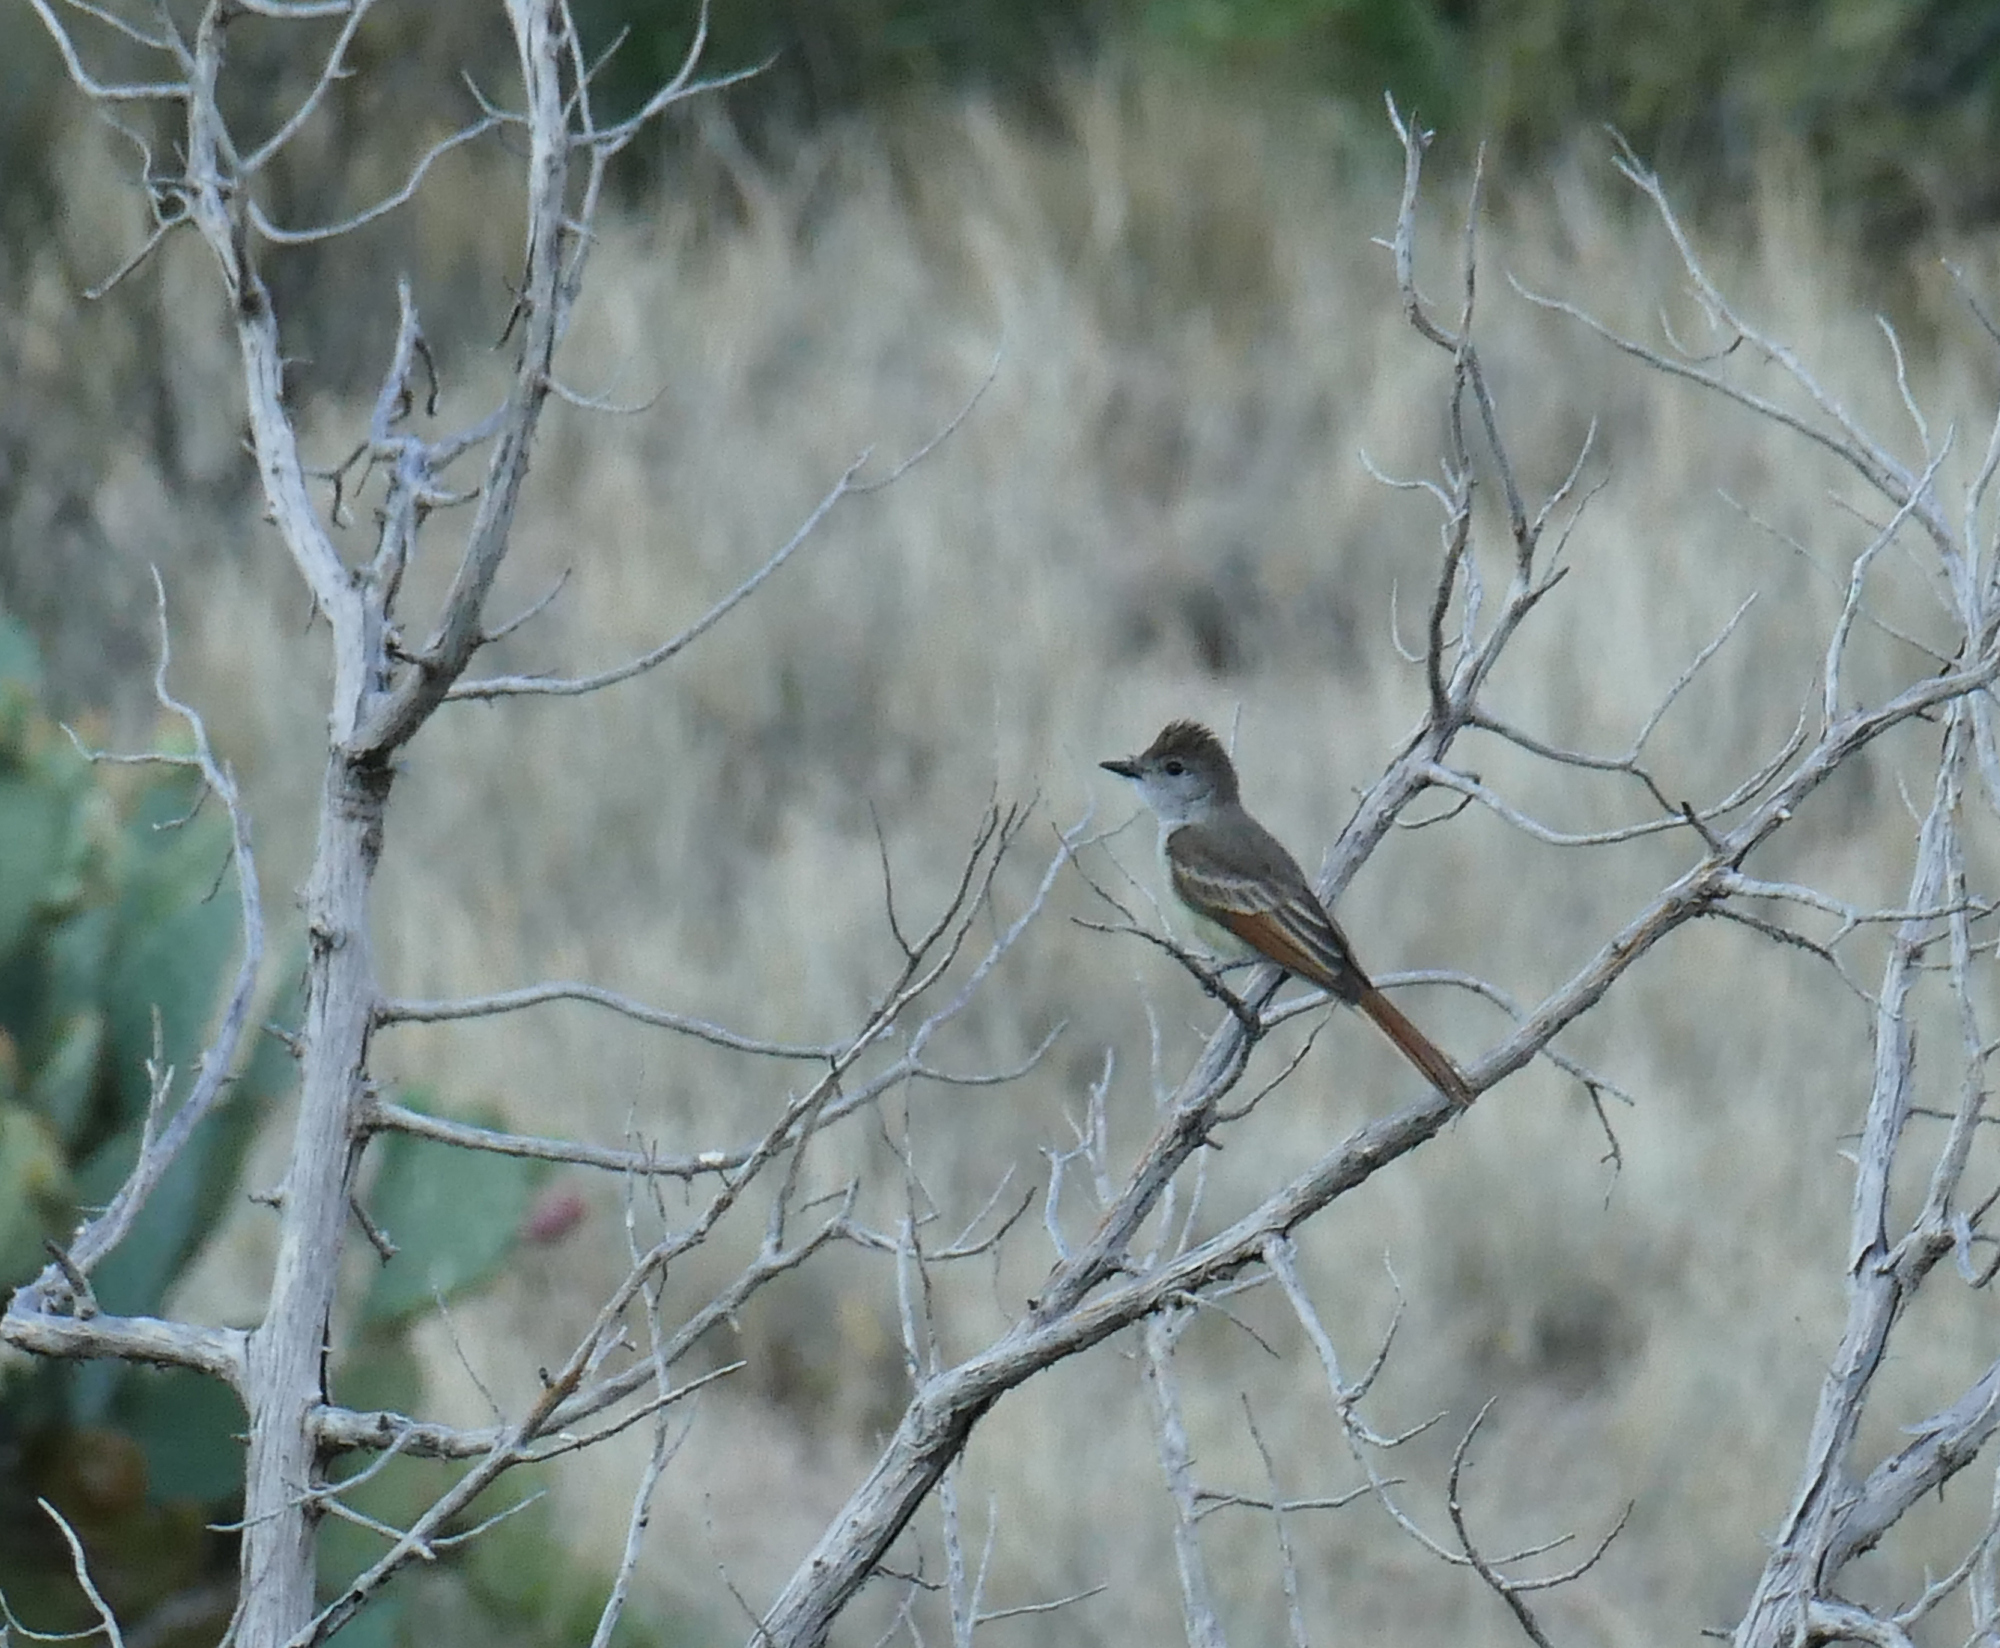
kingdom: Animalia
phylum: Chordata
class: Aves
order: Passeriformes
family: Tyrannidae
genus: Myiarchus
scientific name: Myiarchus cinerascens
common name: Ash-throated flycatcher
